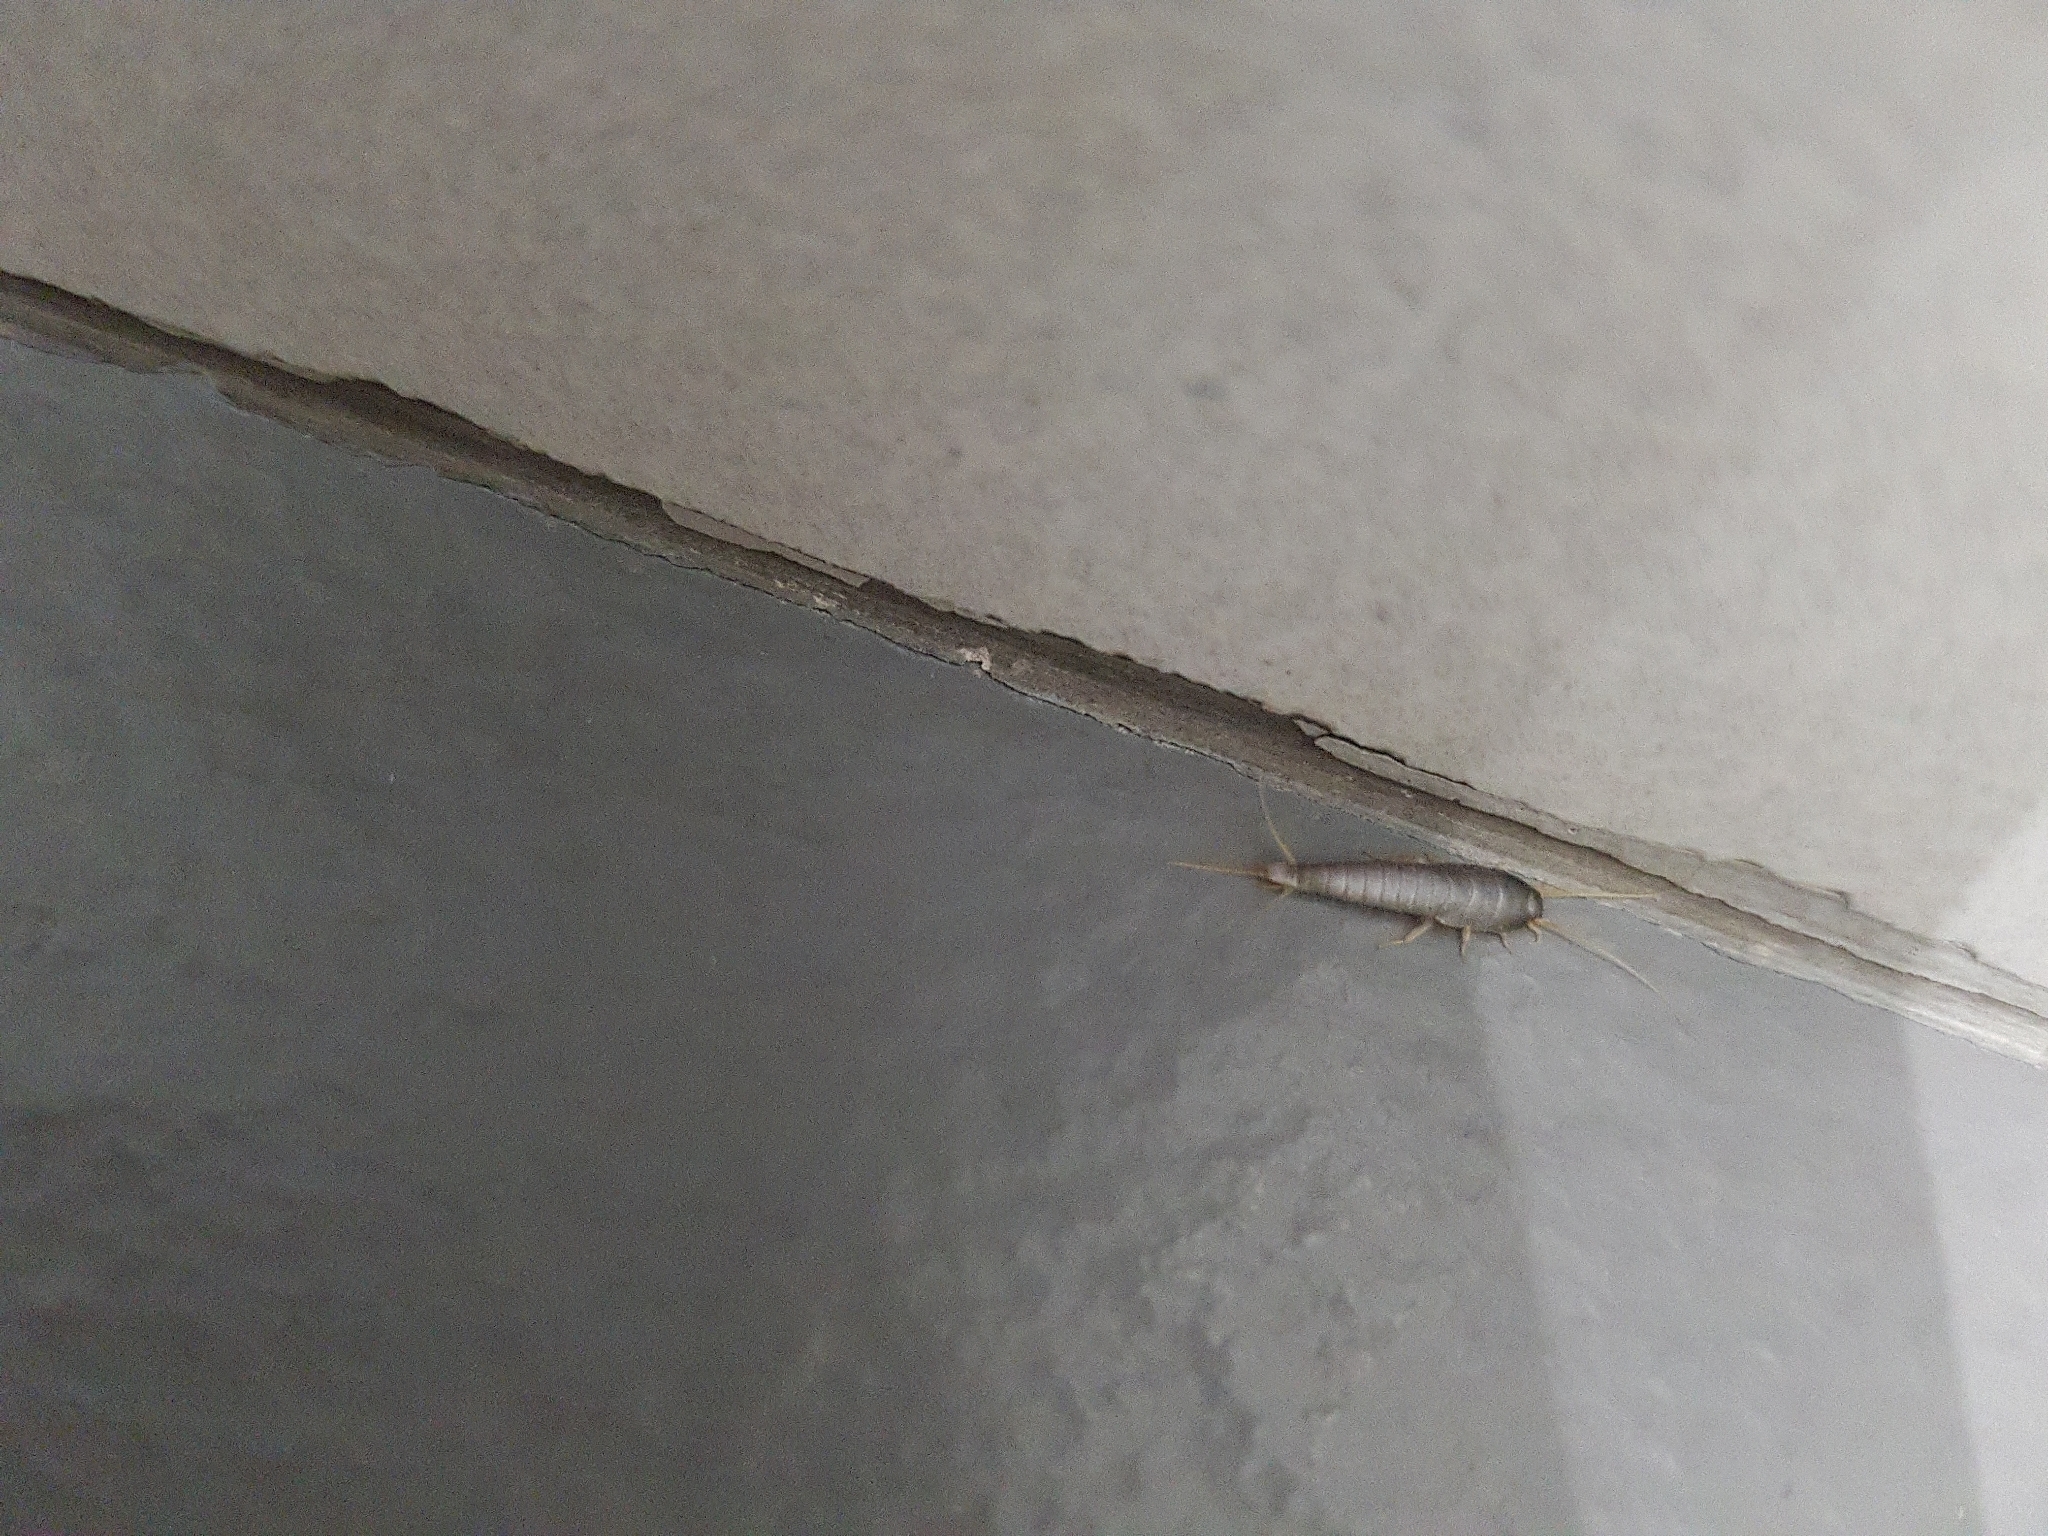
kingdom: Animalia
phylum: Arthropoda
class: Insecta
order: Zygentoma
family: Lepismatidae
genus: Lepisma
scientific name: Lepisma saccharinum
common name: Silverfish
